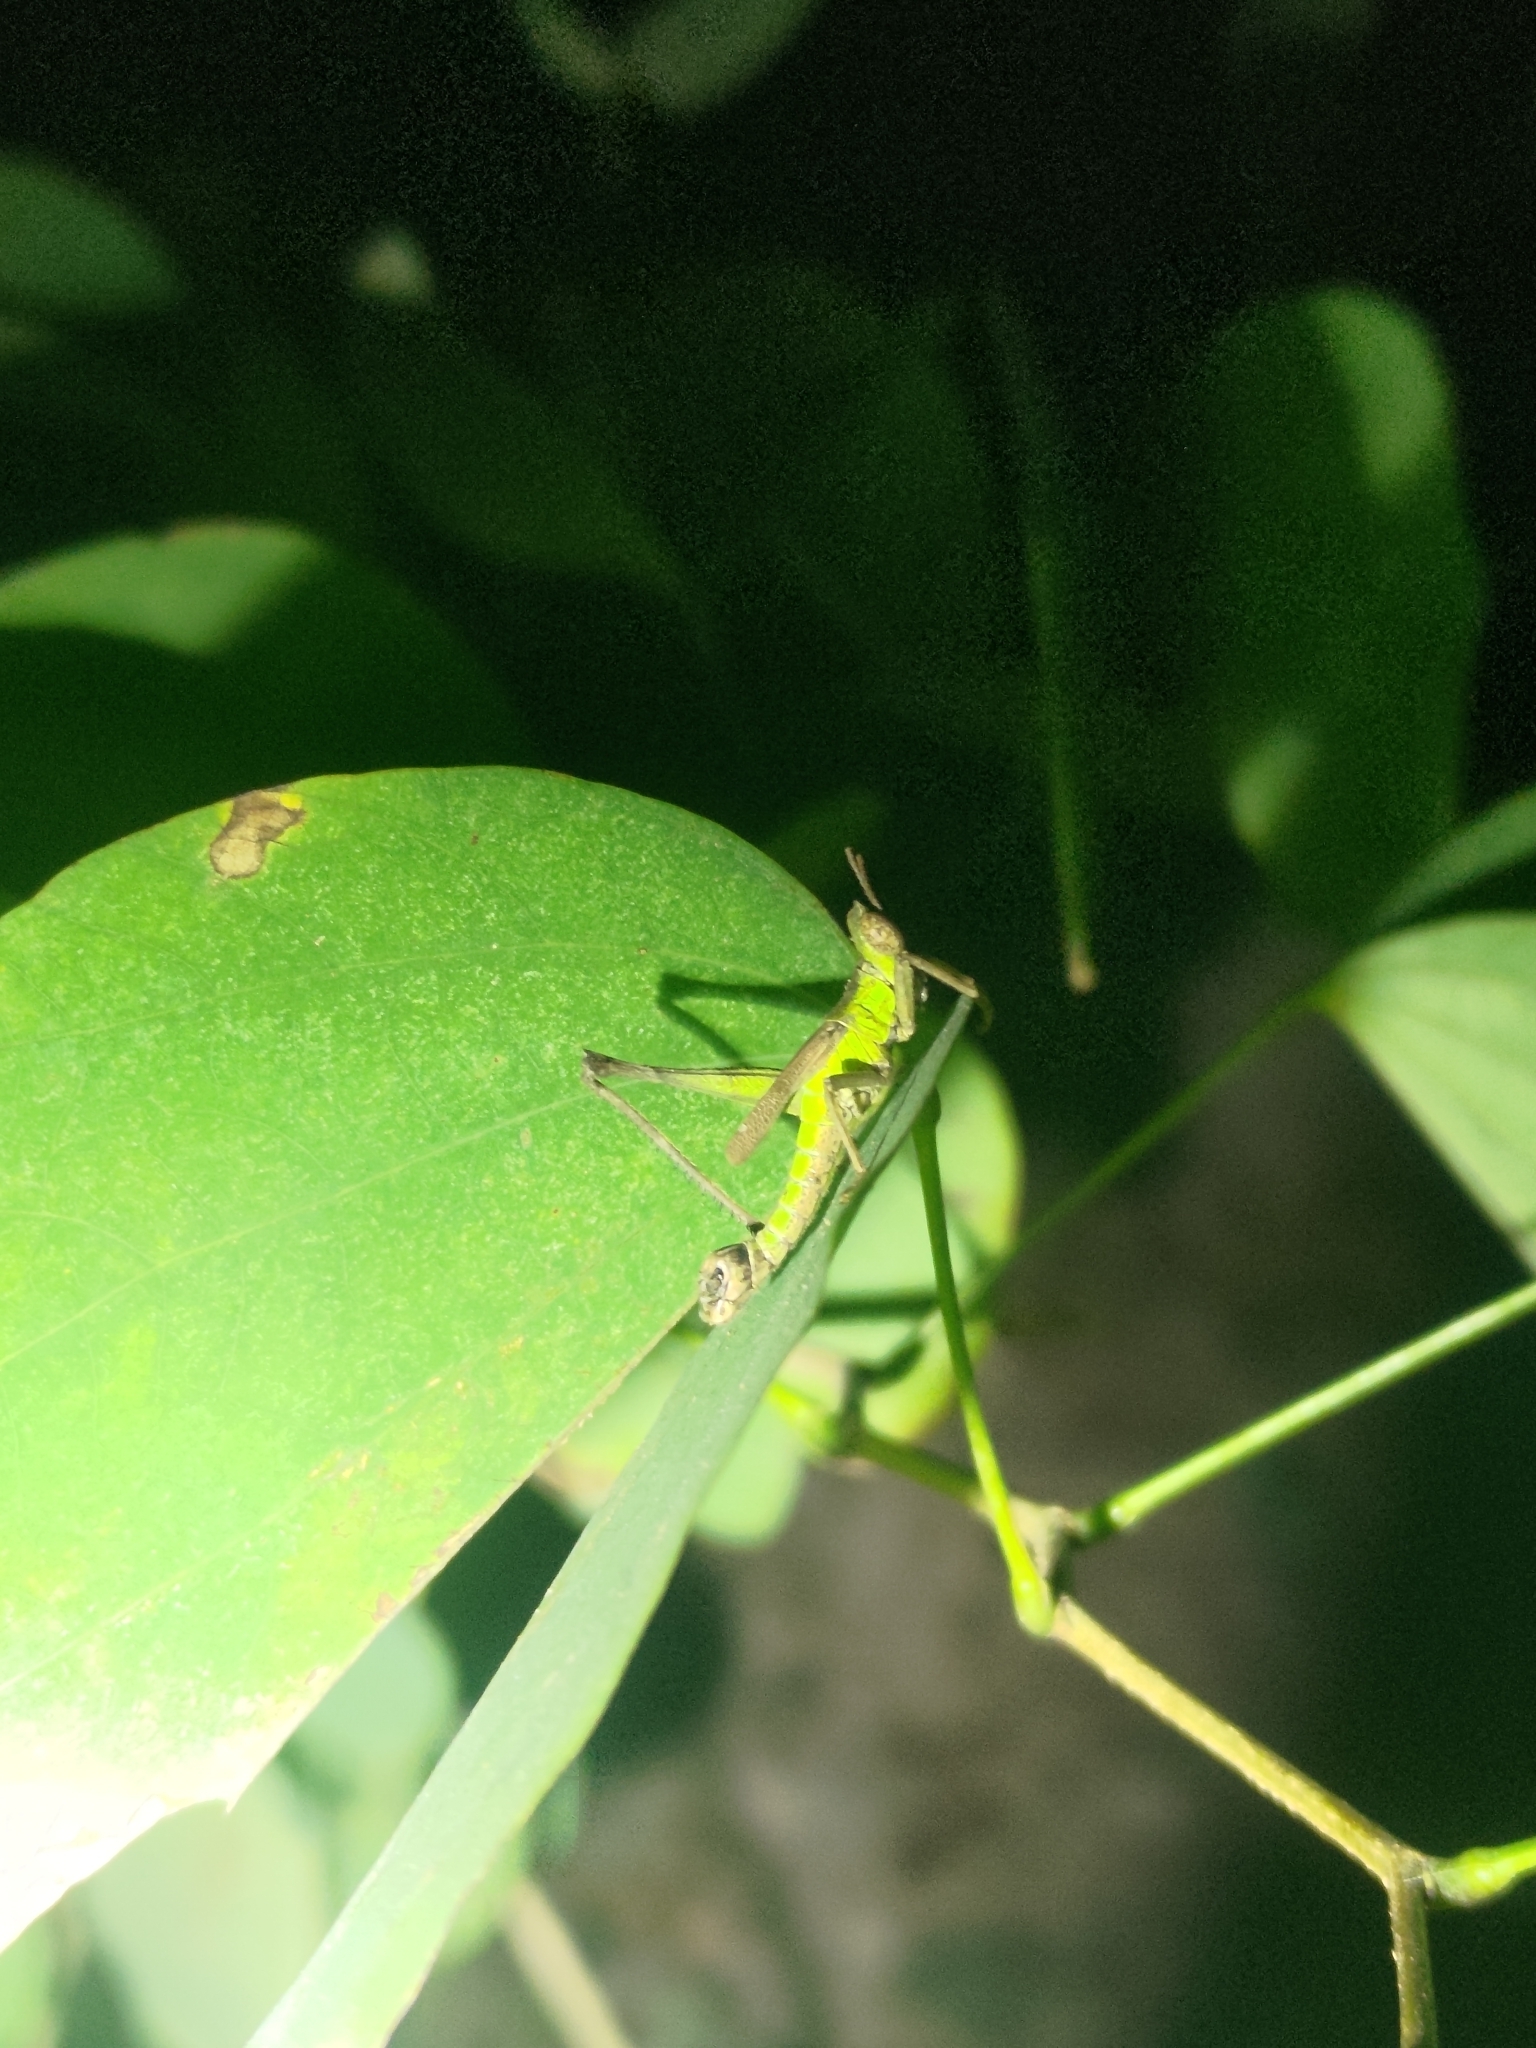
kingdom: Animalia
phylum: Arthropoda
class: Insecta
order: Orthoptera
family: Chorotypidae
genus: Erianthella
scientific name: Erianthella formosana
